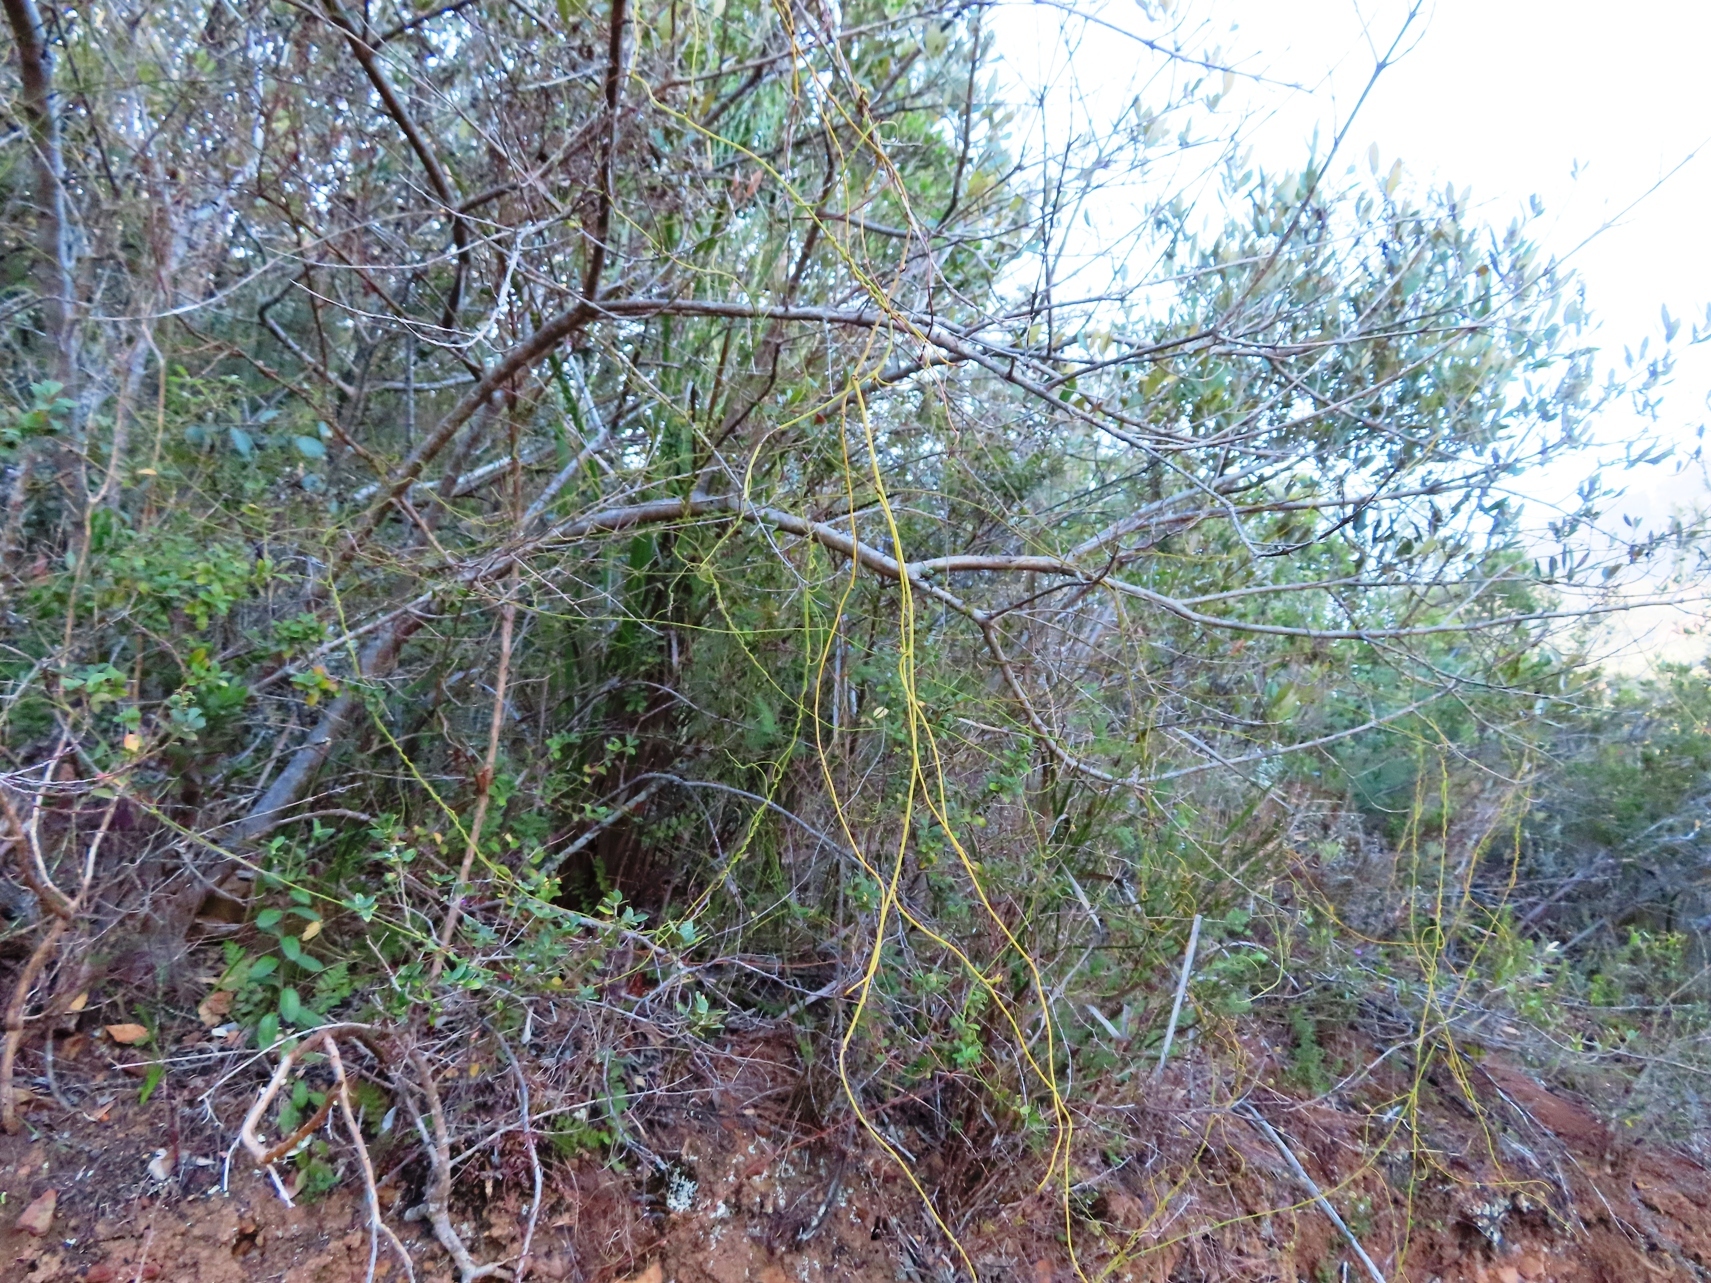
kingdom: Plantae
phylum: Tracheophyta
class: Magnoliopsida
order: Laurales
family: Lauraceae
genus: Cassytha
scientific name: Cassytha ciliolata
